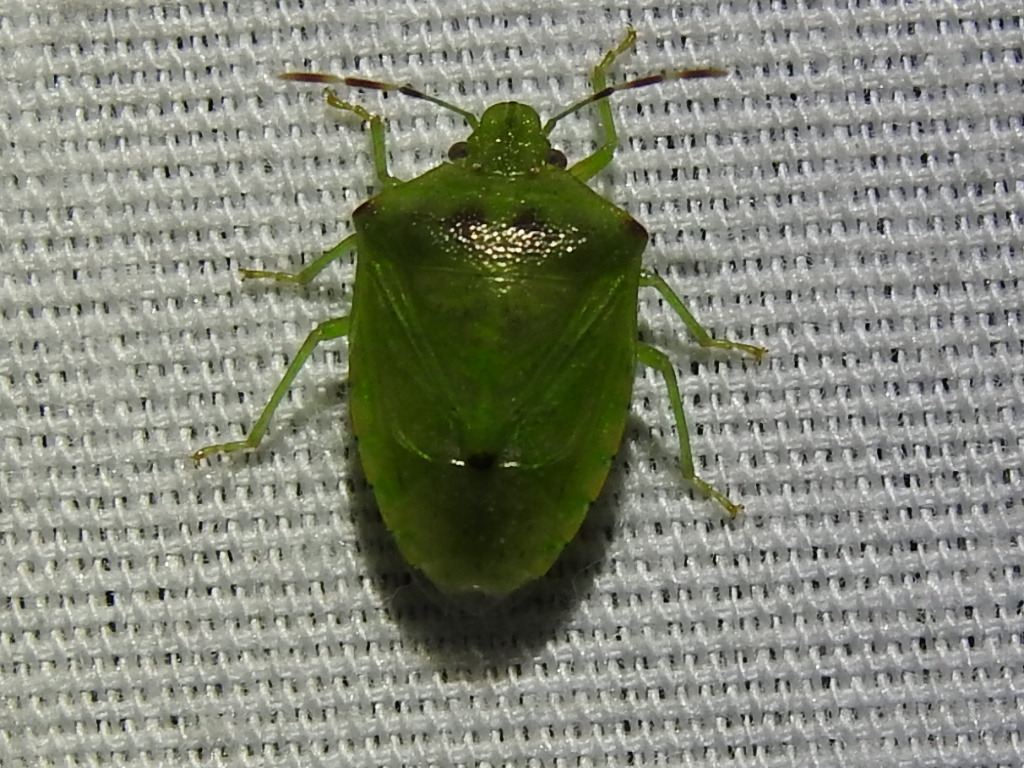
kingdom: Animalia
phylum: Arthropoda
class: Insecta
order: Hemiptera
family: Pentatomidae
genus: Thyanta
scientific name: Thyanta maculata
